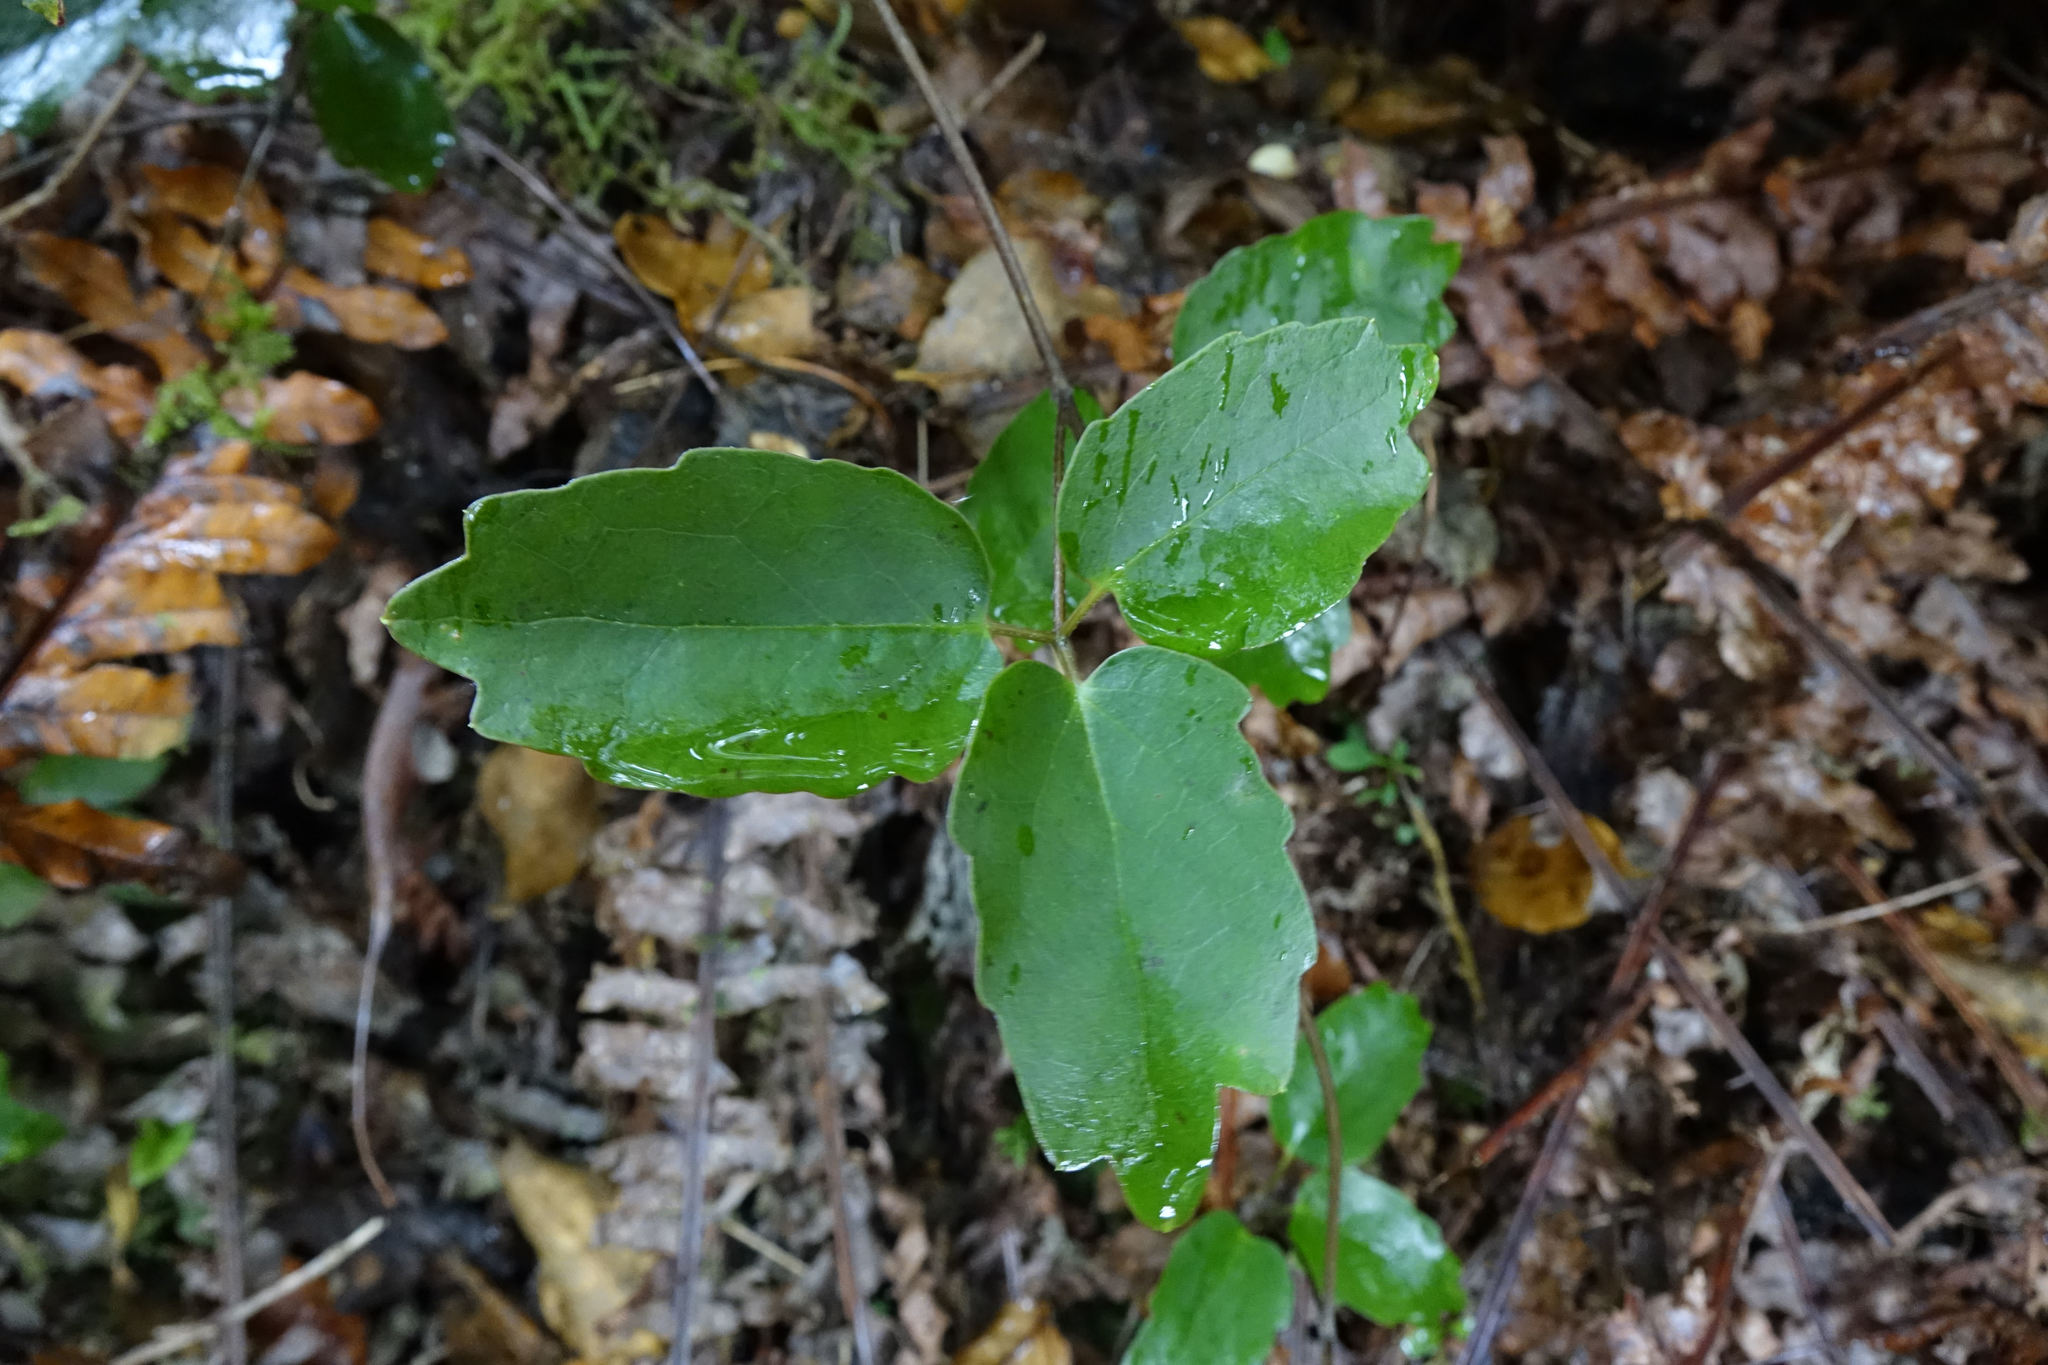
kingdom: Plantae
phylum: Tracheophyta
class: Magnoliopsida
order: Ranunculales
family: Ranunculaceae
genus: Clematis
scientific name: Clematis paniculata
